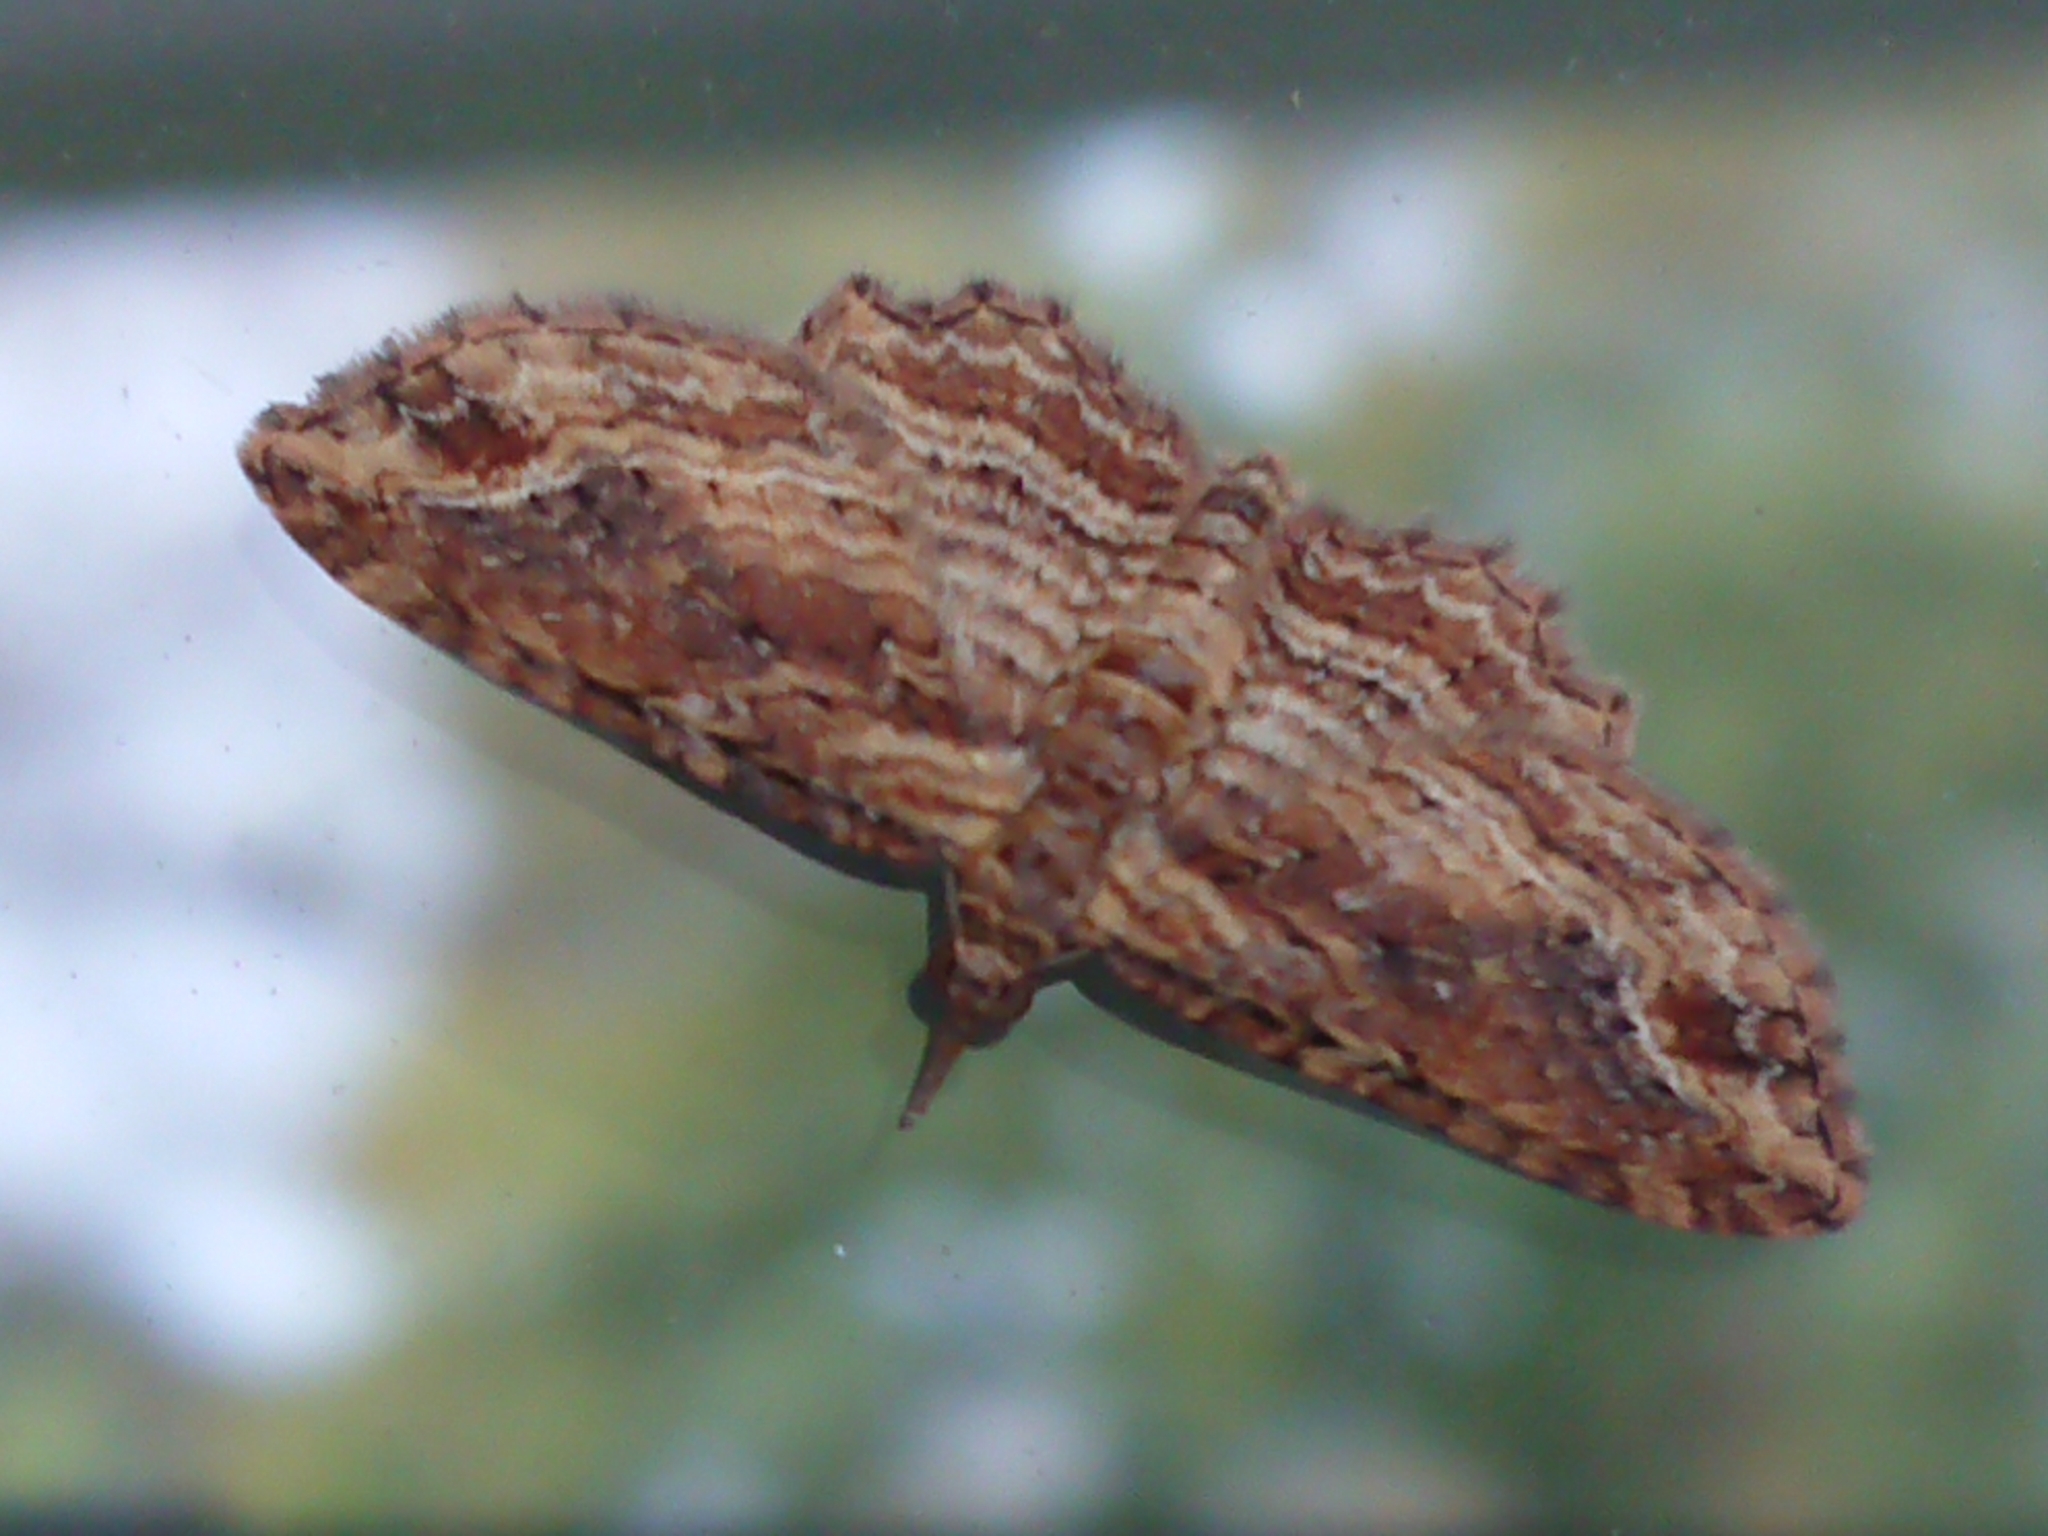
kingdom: Animalia
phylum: Arthropoda
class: Insecta
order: Lepidoptera
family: Geometridae
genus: Chloroclystis
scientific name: Chloroclystis filata
